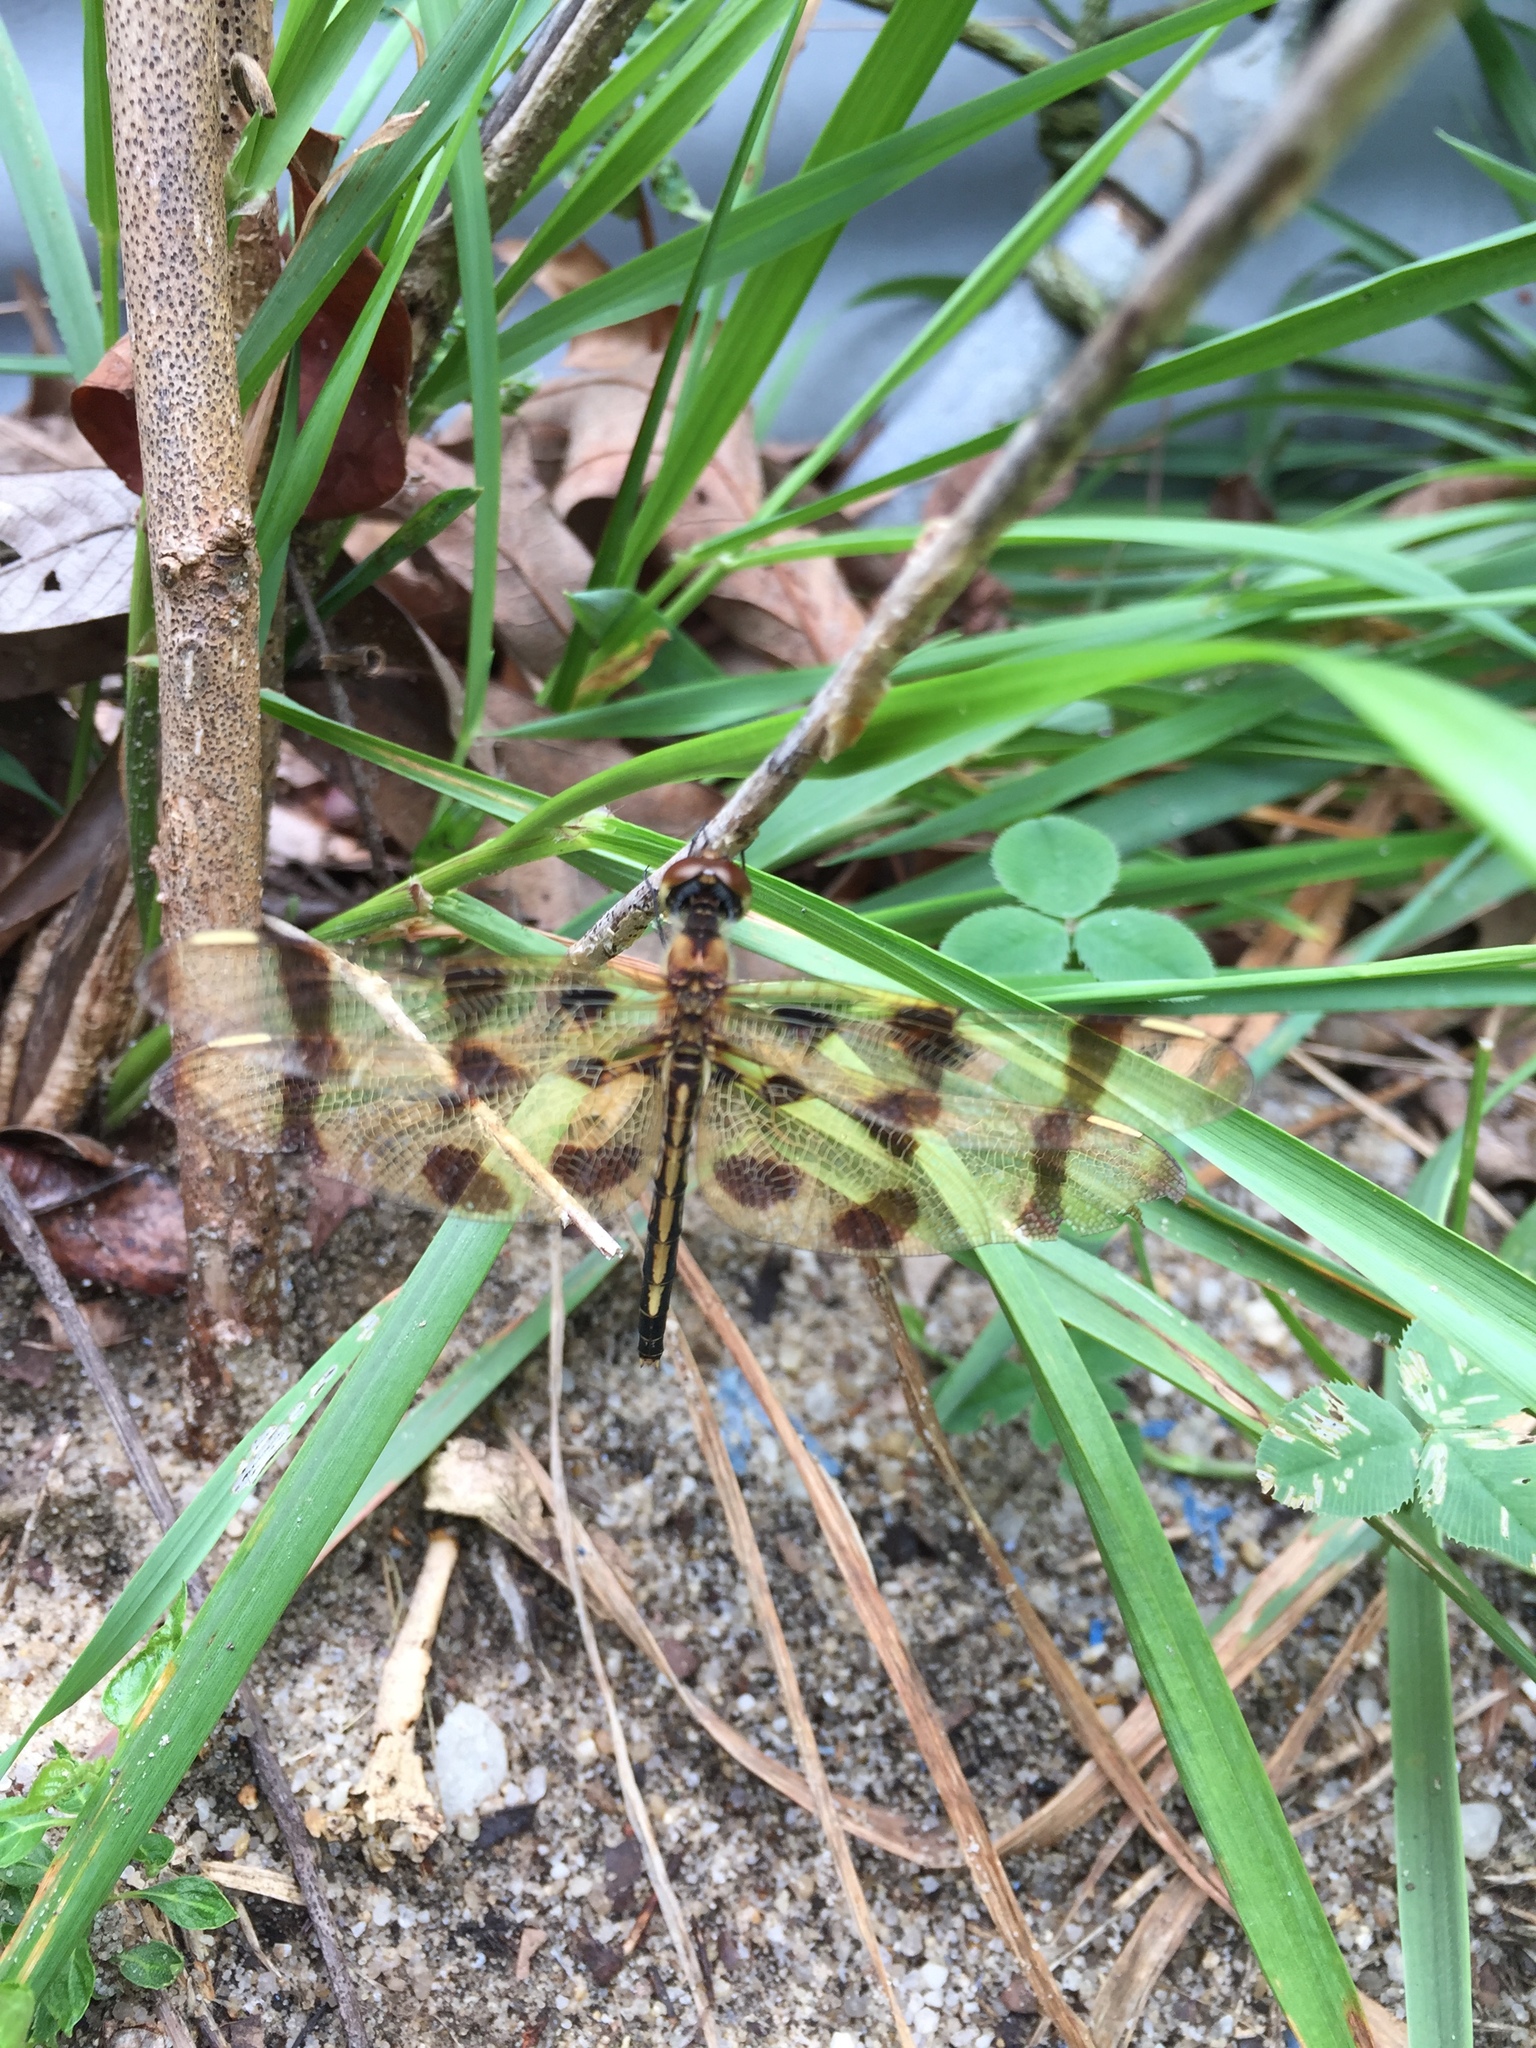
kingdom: Animalia
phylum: Arthropoda
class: Insecta
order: Odonata
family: Libellulidae
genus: Celithemis
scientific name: Celithemis eponina
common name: Halloween pennant
